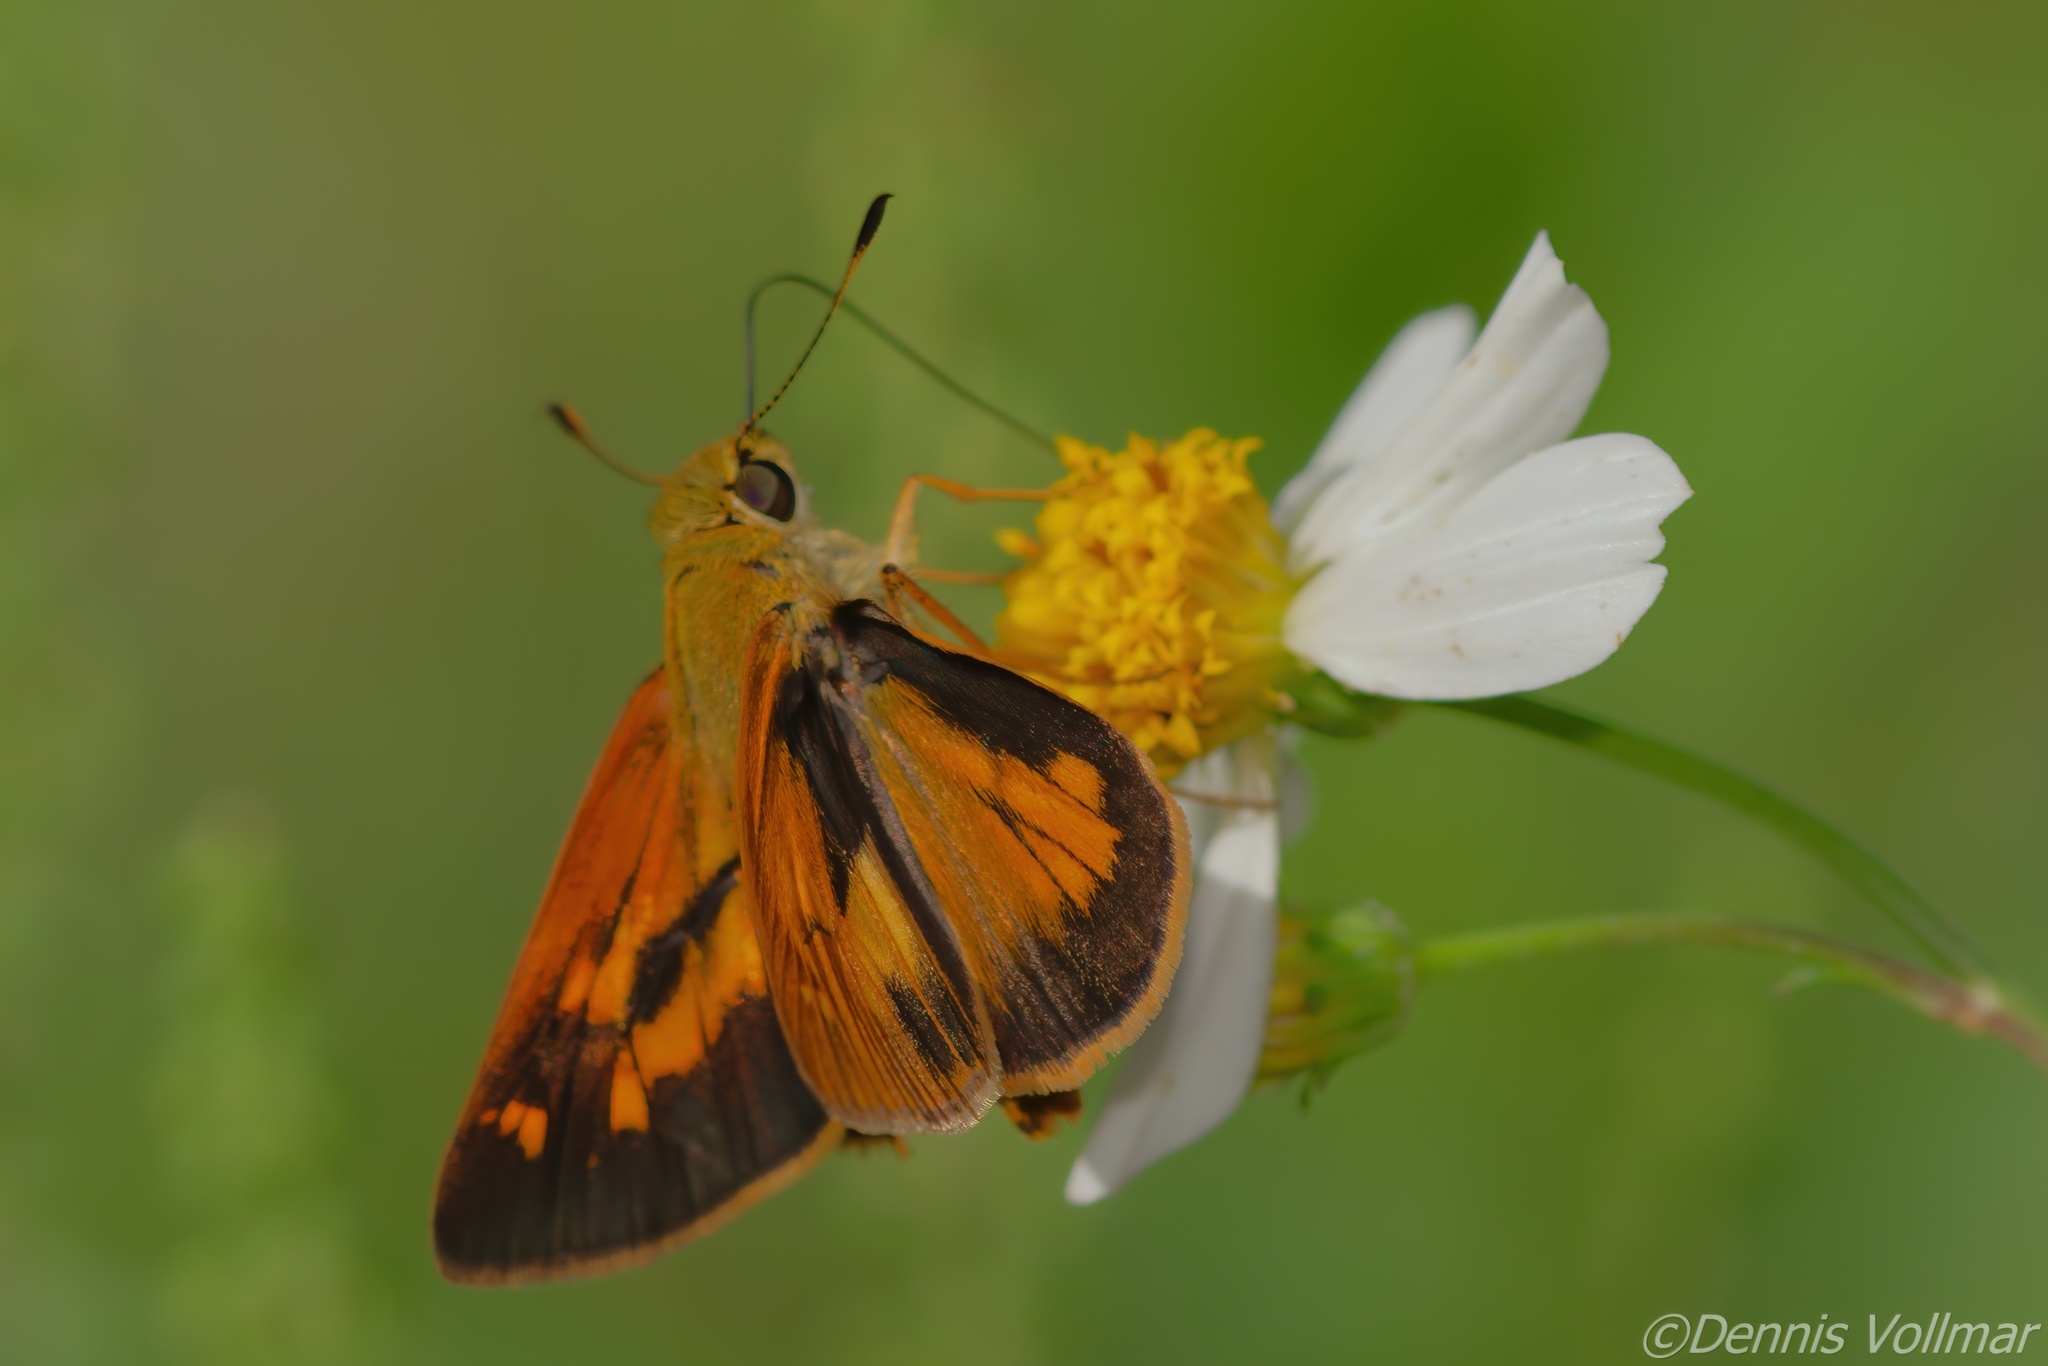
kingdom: Animalia
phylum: Arthropoda
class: Insecta
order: Lepidoptera
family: Hesperiidae
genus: Poanes
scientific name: Poanes yehl
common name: Yehl skipper
